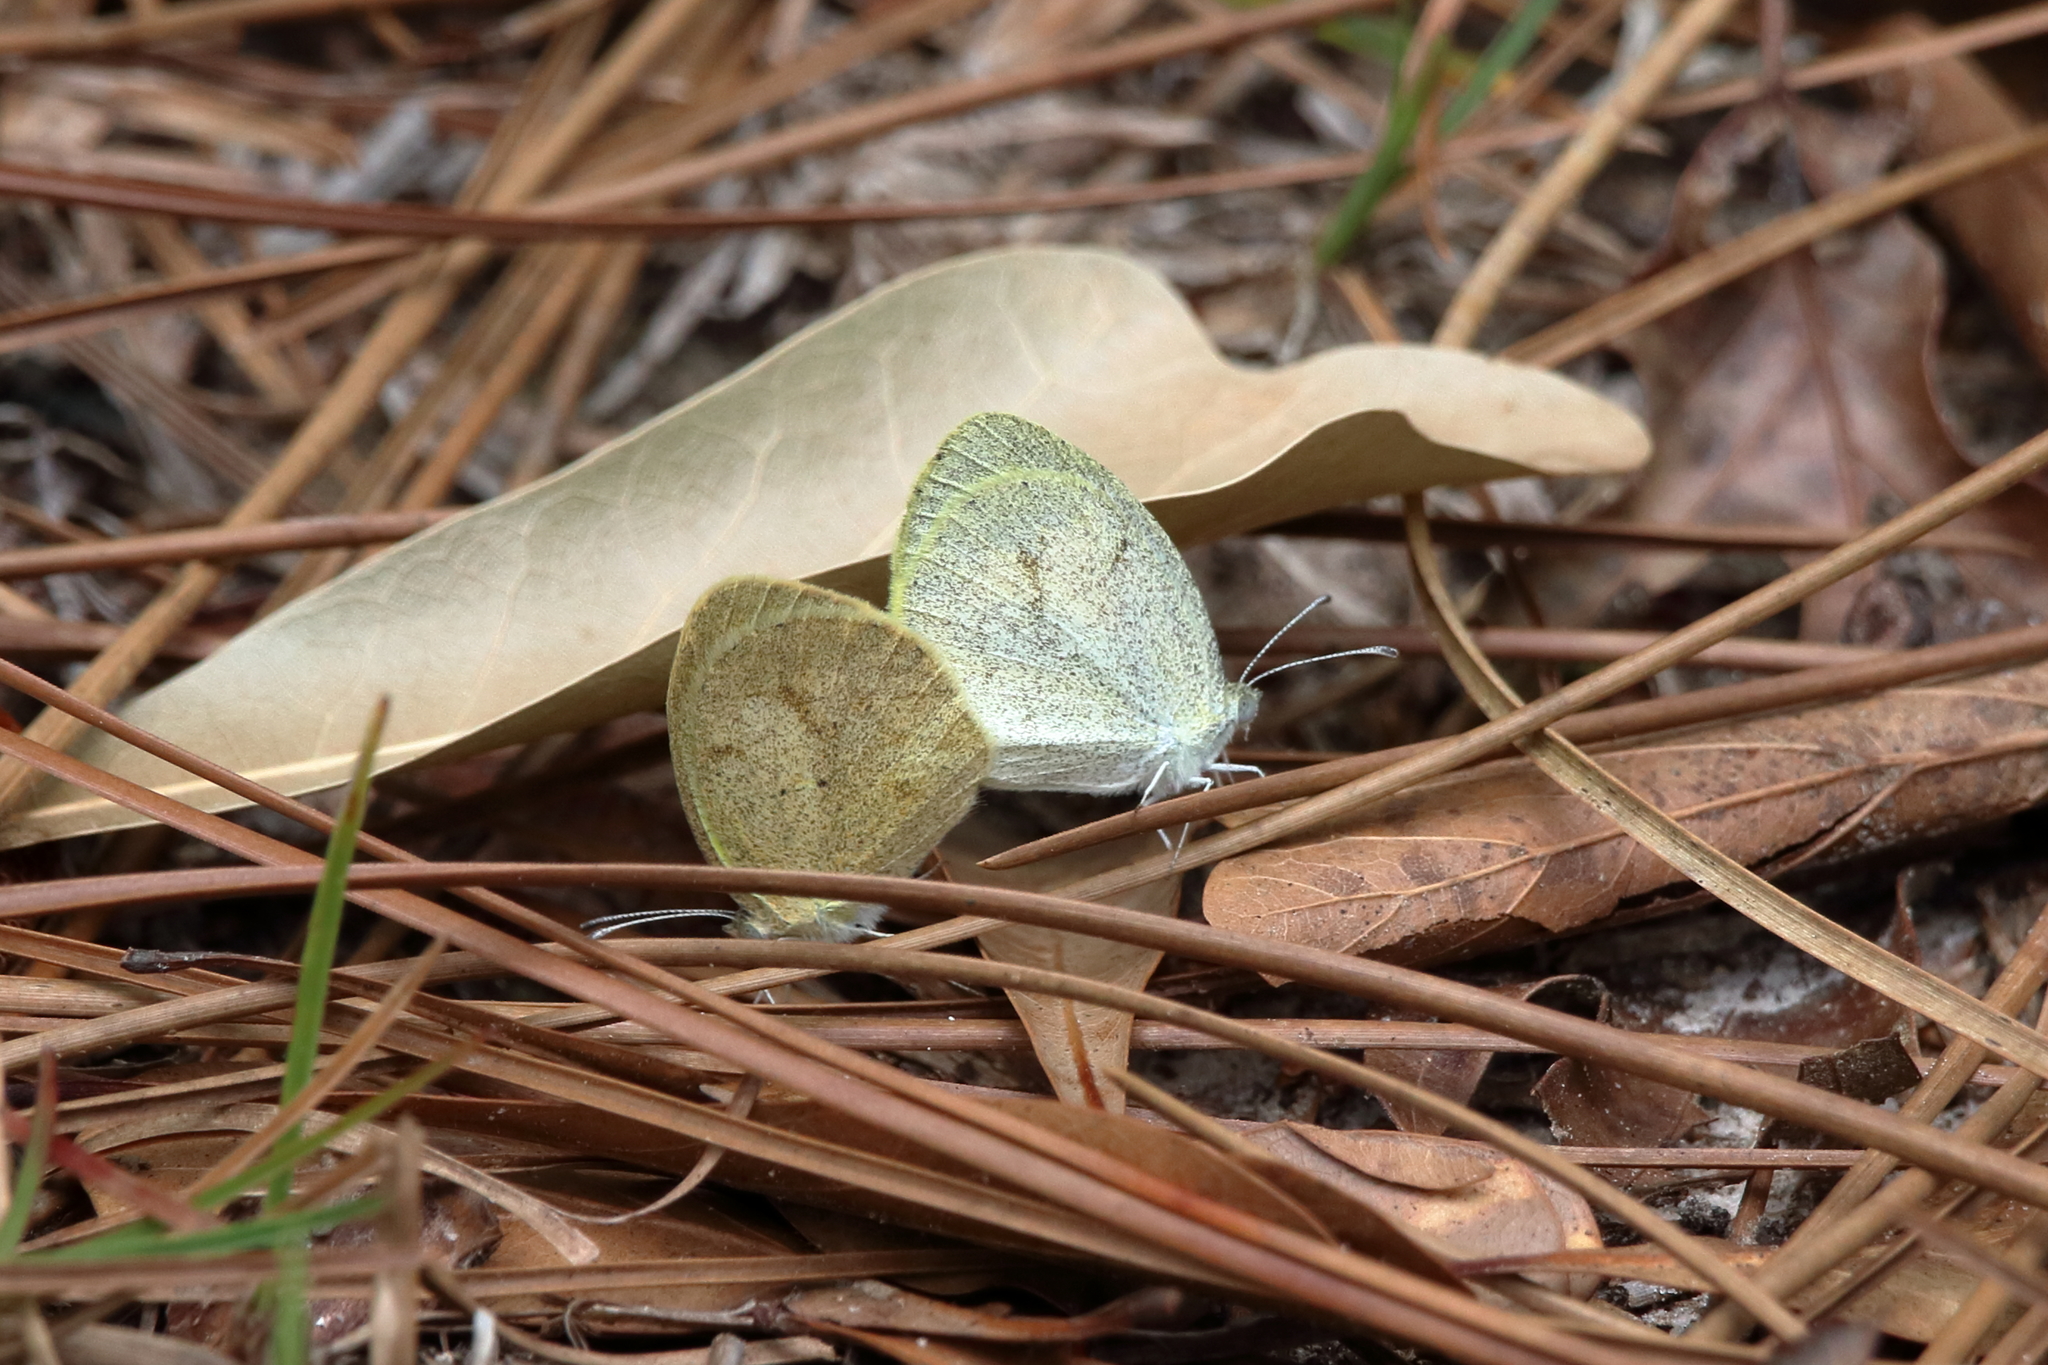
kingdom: Animalia
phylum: Arthropoda
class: Insecta
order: Lepidoptera
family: Pieridae
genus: Eurema
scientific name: Eurema daira
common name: Barred sulphur
